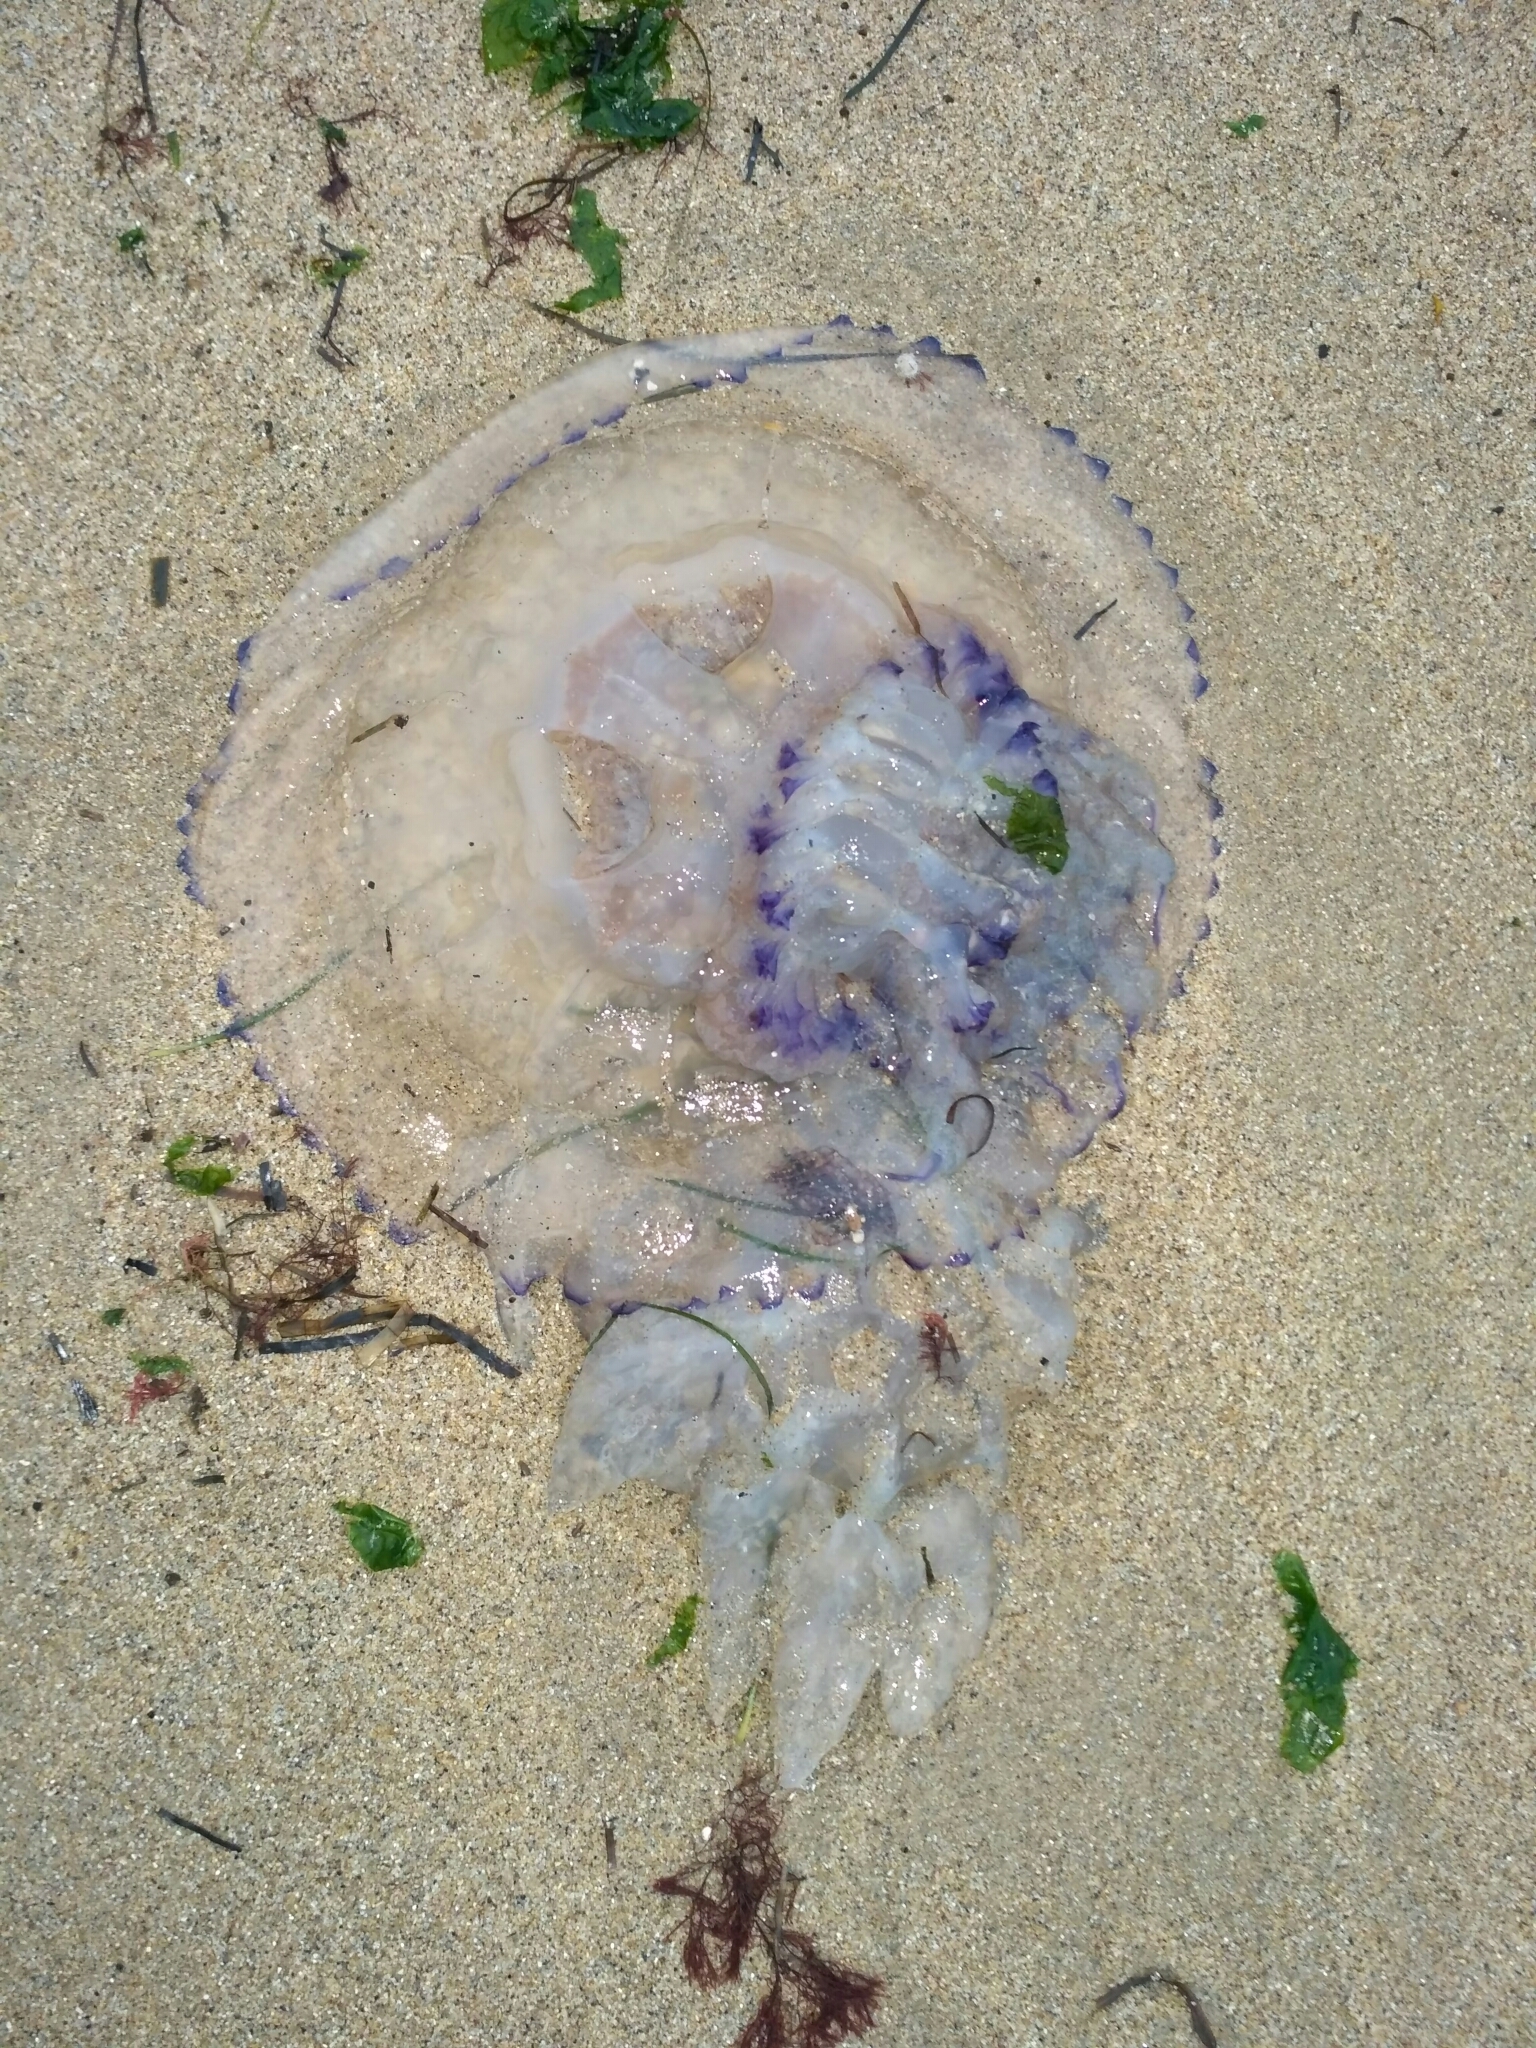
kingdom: Animalia
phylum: Cnidaria
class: Scyphozoa
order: Rhizostomeae
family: Rhizostomatidae
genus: Rhizostoma
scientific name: Rhizostoma pulmo
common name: Barrel jellyfish
